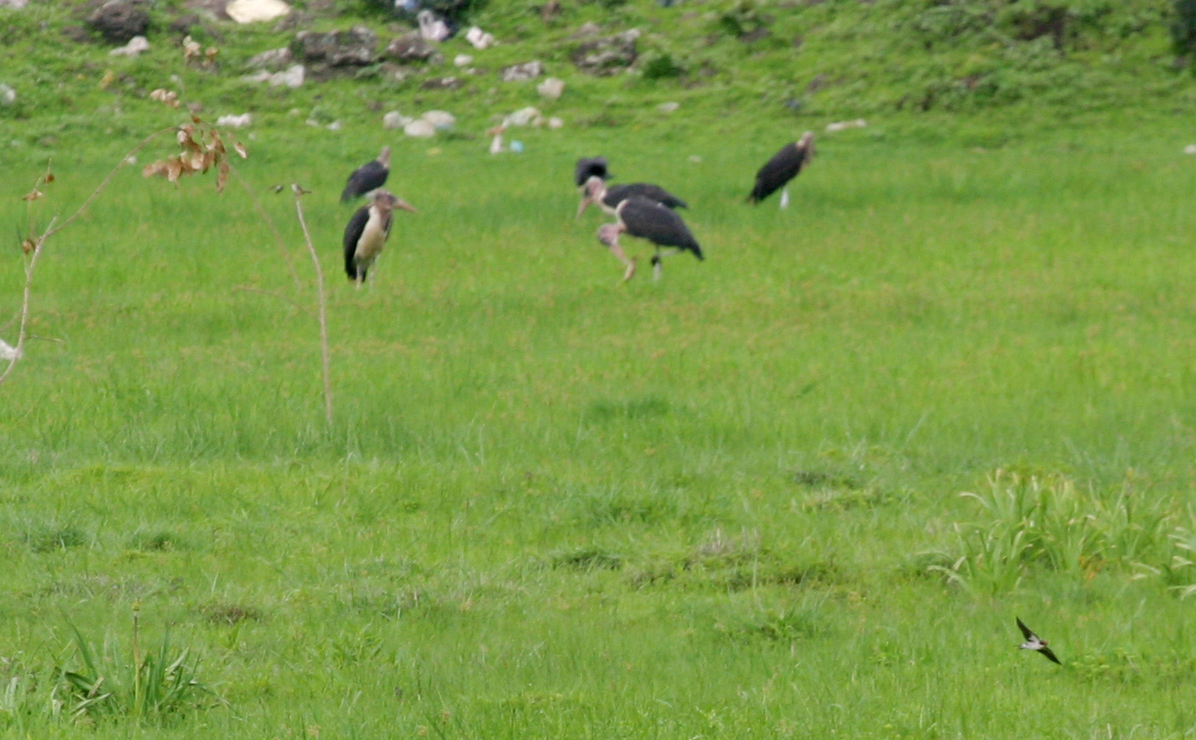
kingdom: Animalia
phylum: Chordata
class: Aves
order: Ciconiiformes
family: Ciconiidae
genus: Leptoptilos
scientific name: Leptoptilos crumenifer
